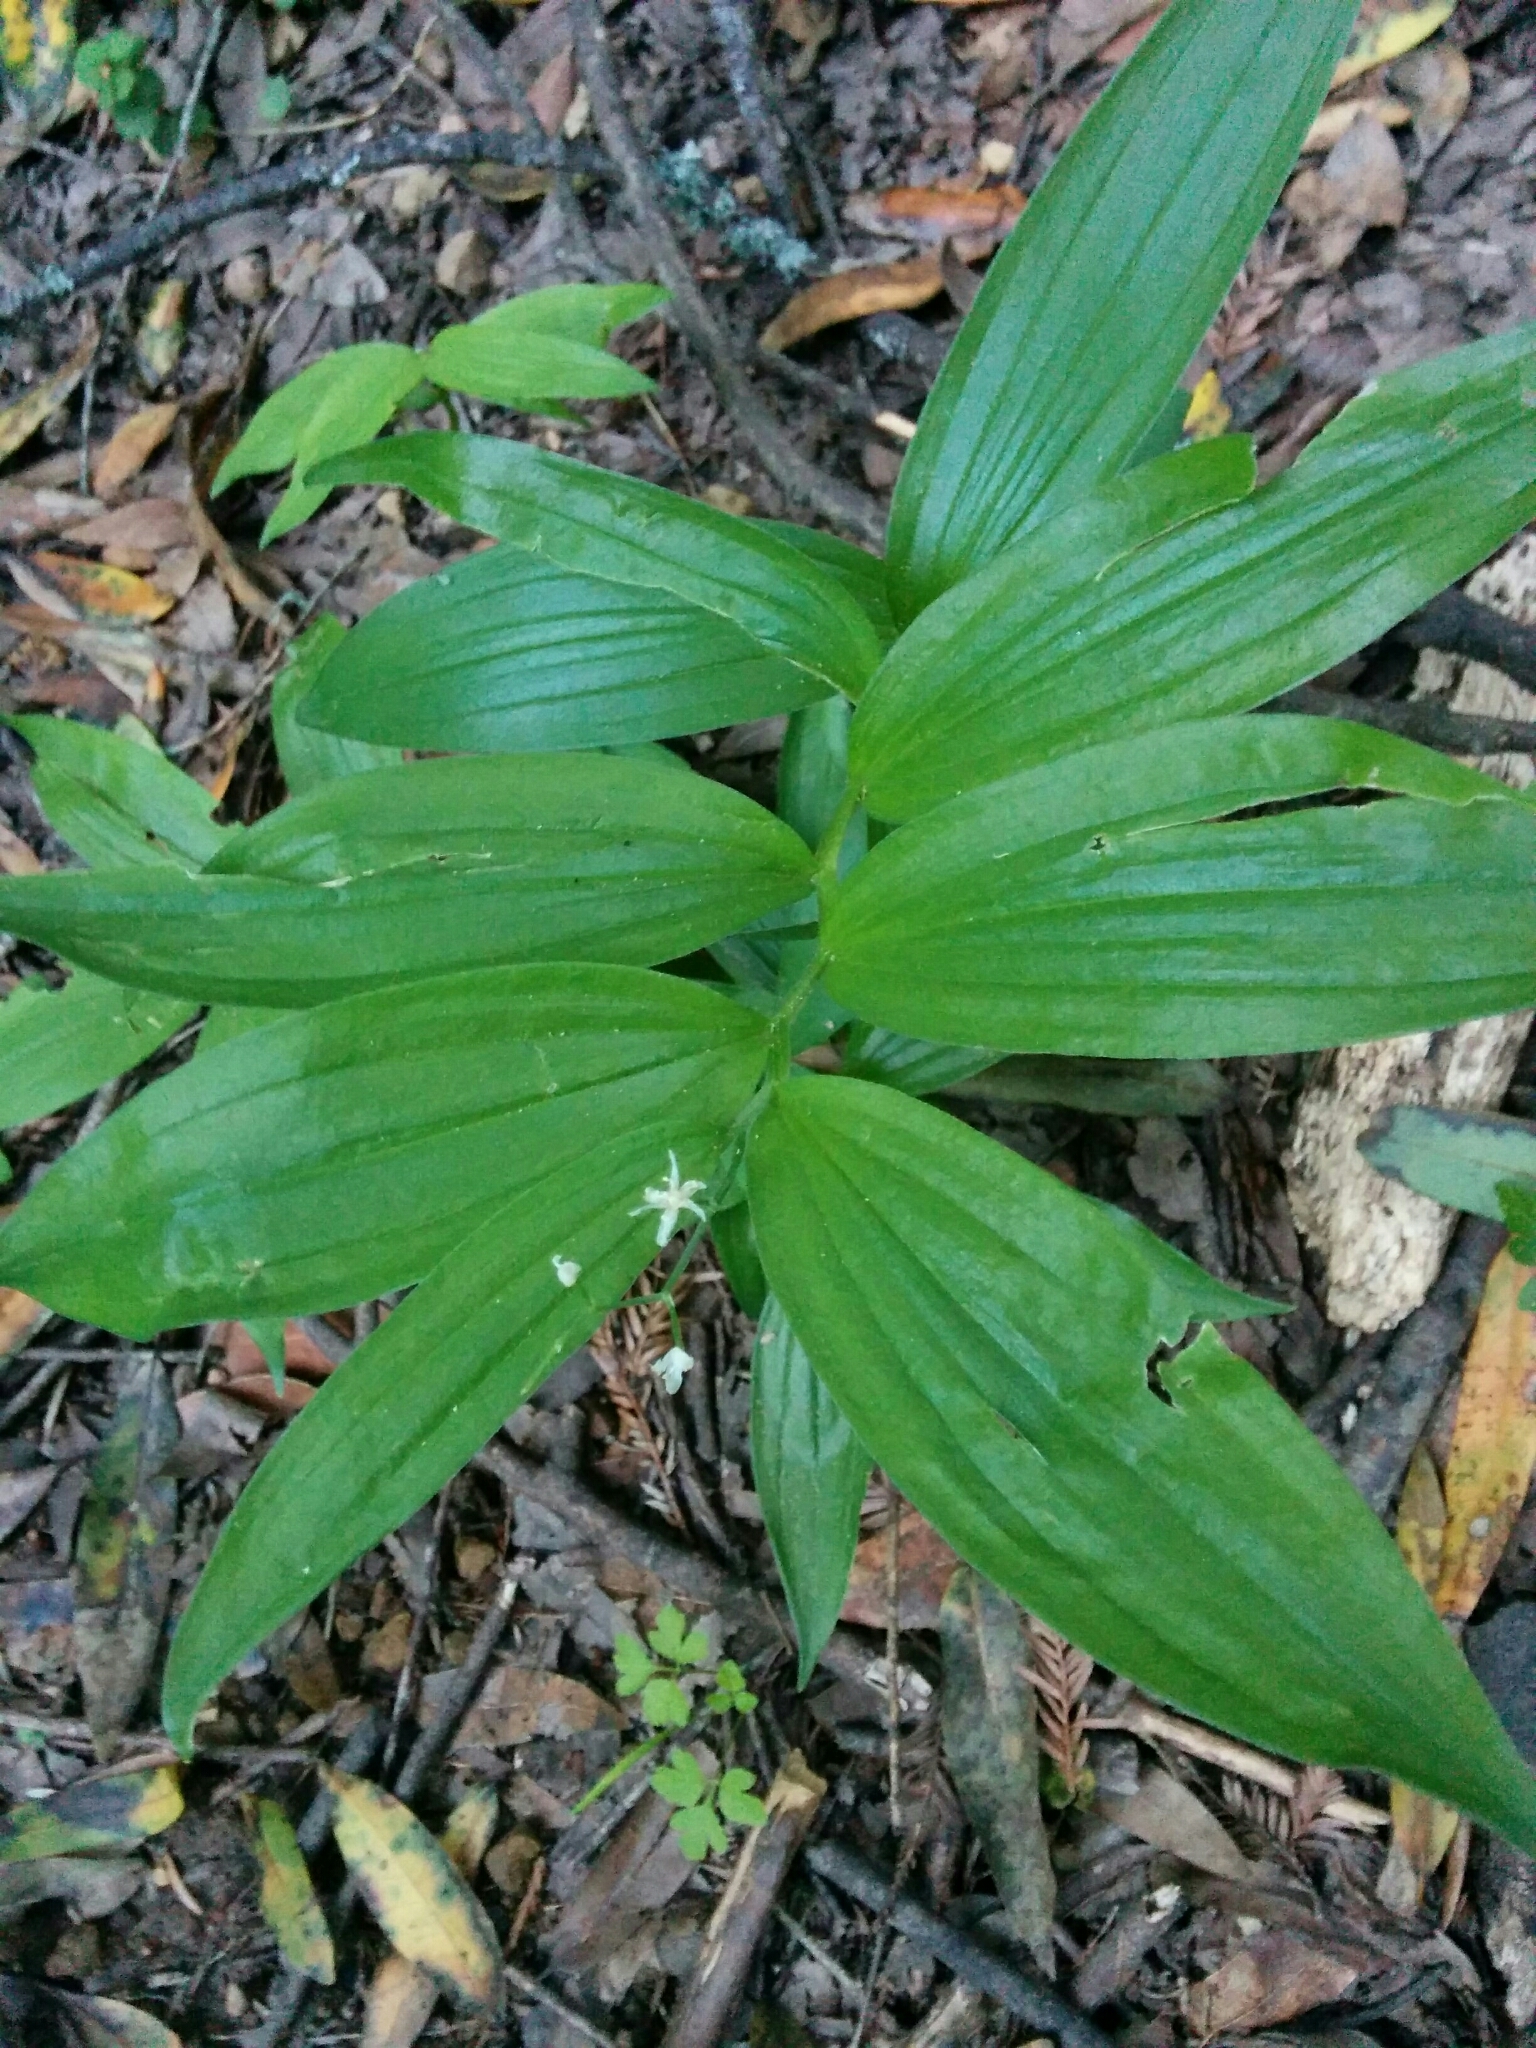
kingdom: Plantae
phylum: Tracheophyta
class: Liliopsida
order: Asparagales
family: Asparagaceae
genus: Maianthemum
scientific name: Maianthemum stellatum
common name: Little false solomon's seal
